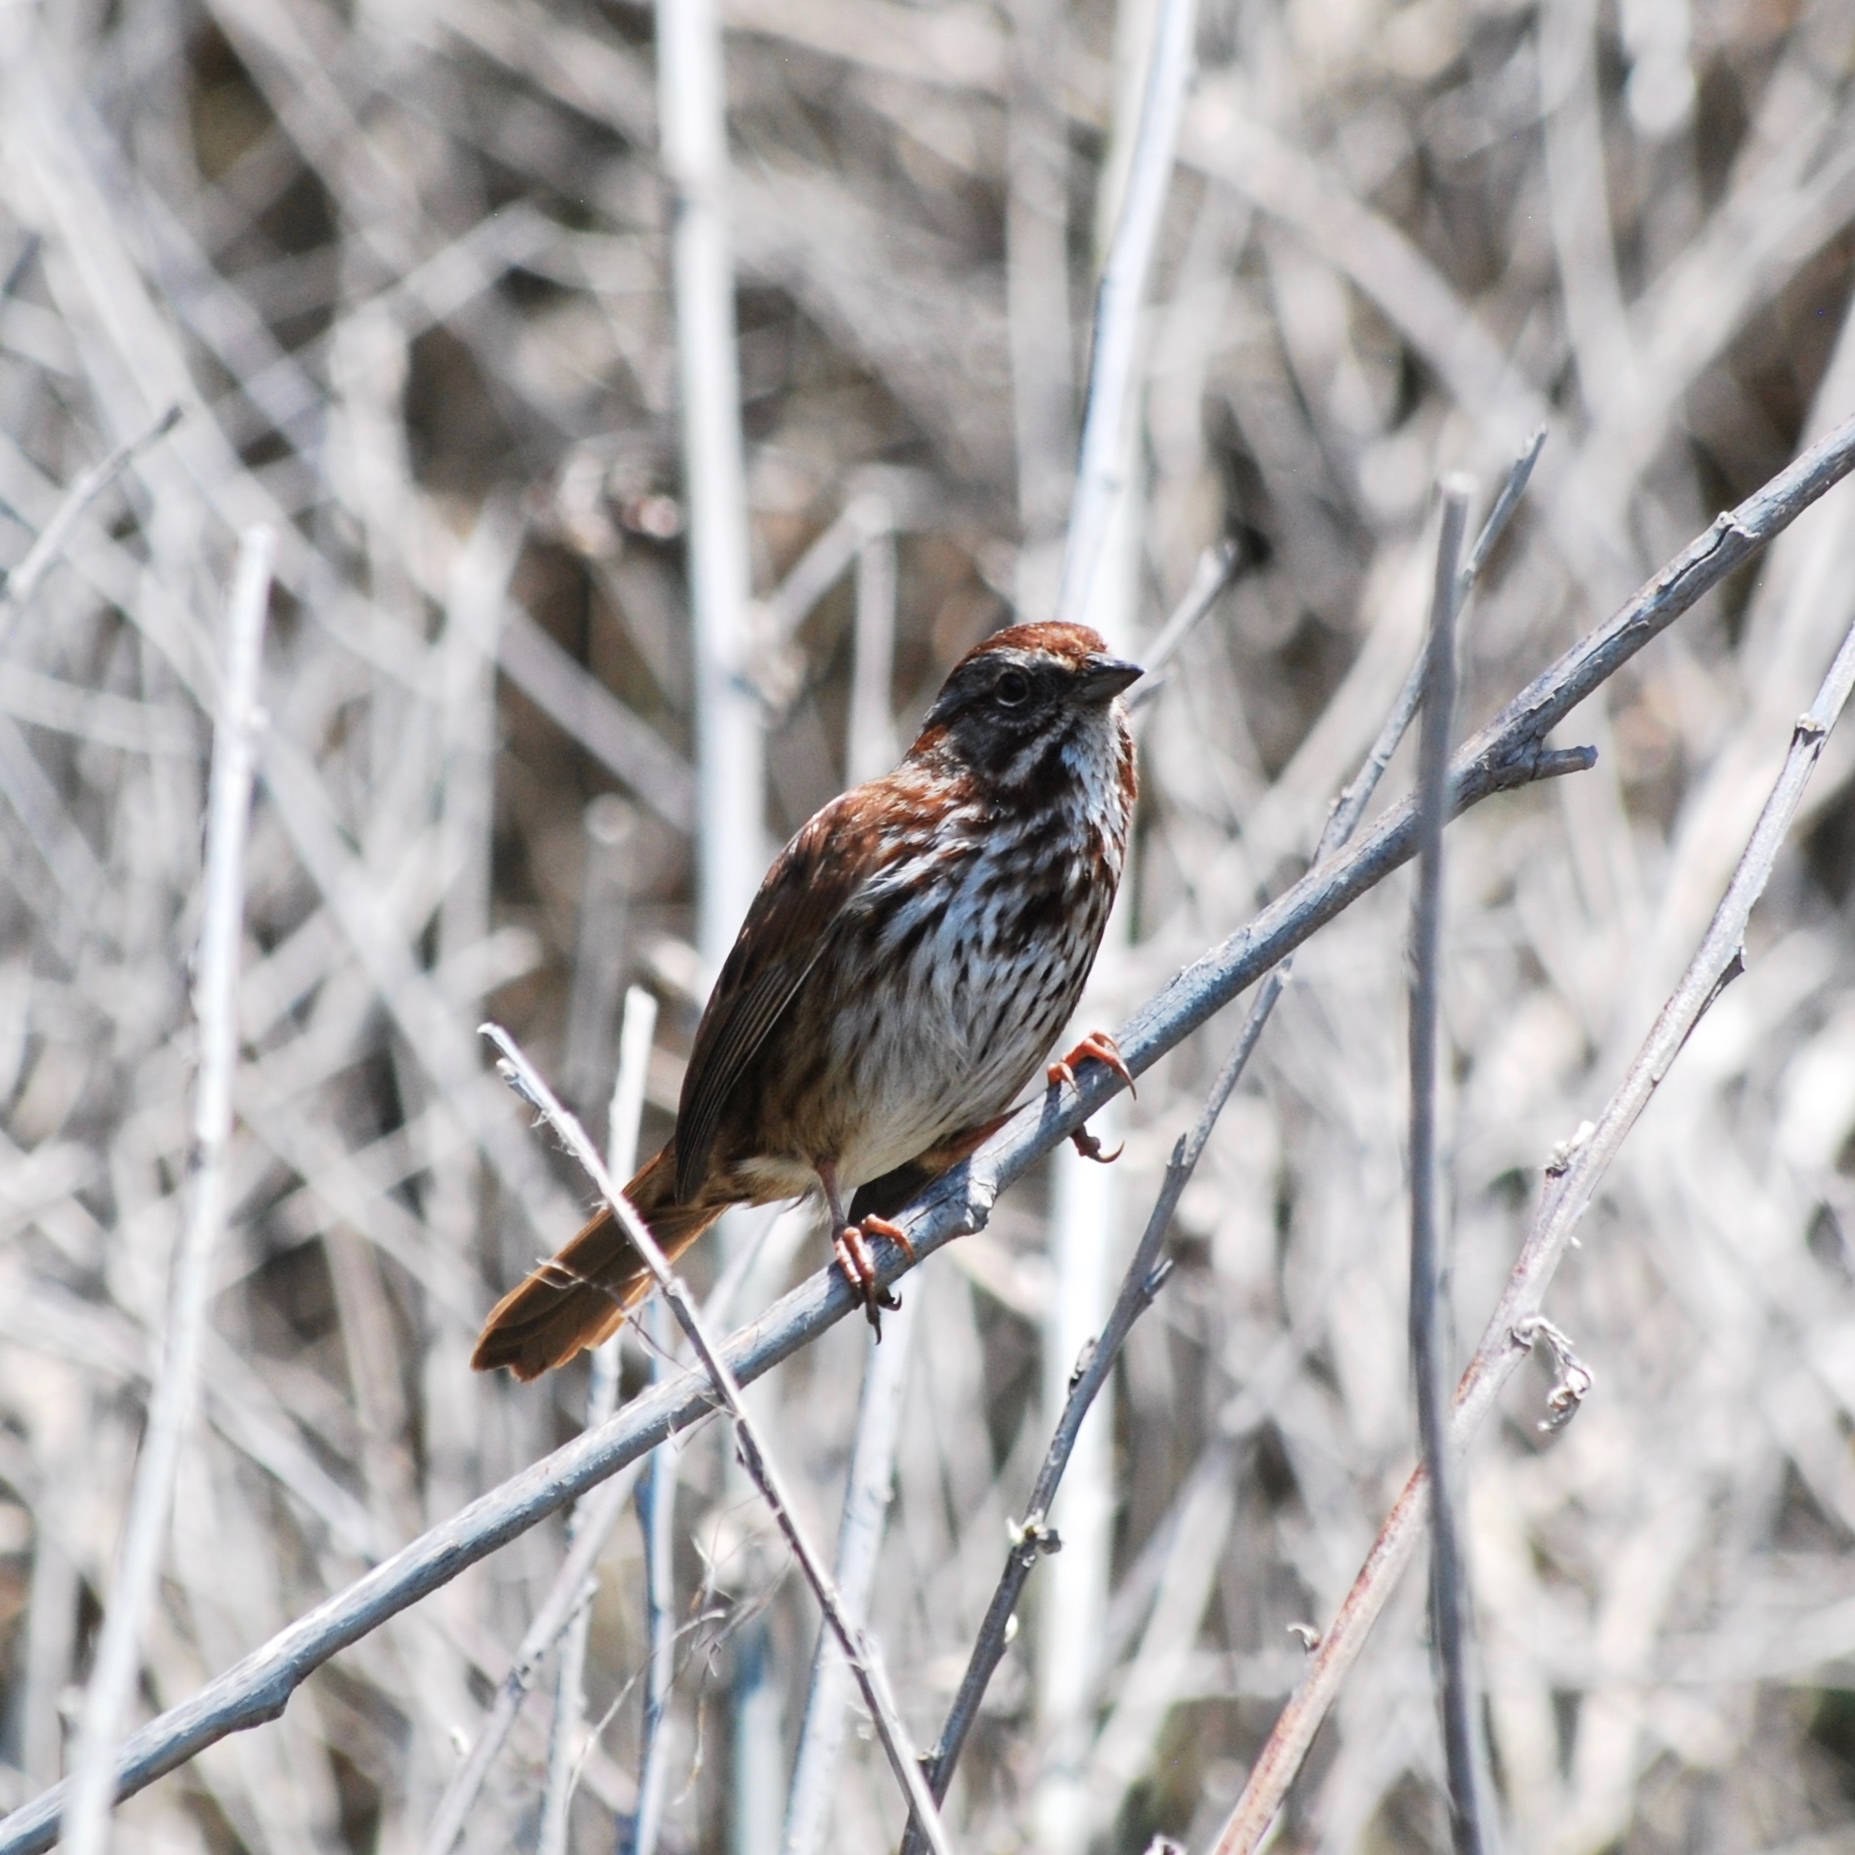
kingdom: Animalia
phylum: Chordata
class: Aves
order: Passeriformes
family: Passerellidae
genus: Melospiza
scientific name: Melospiza melodia
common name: Song sparrow
